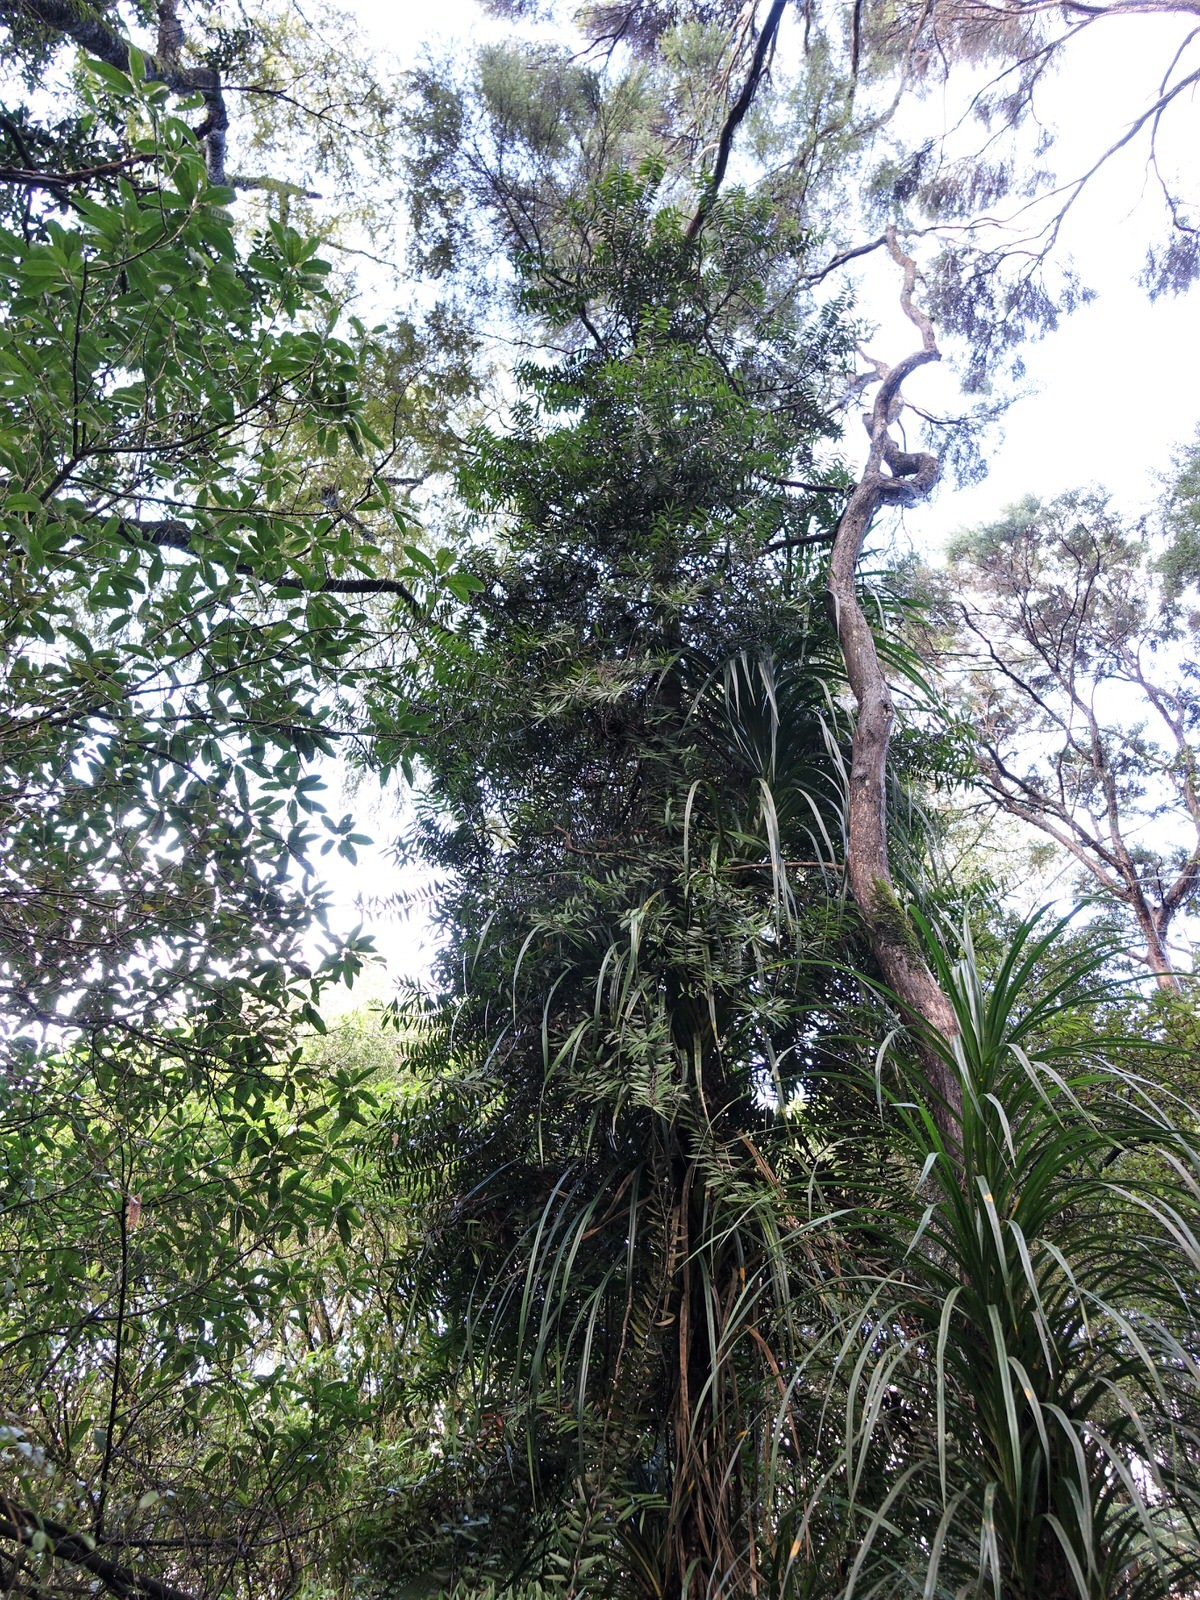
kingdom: Plantae
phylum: Tracheophyta
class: Pinopsida
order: Pinales
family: Araucariaceae
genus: Agathis
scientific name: Agathis australis
